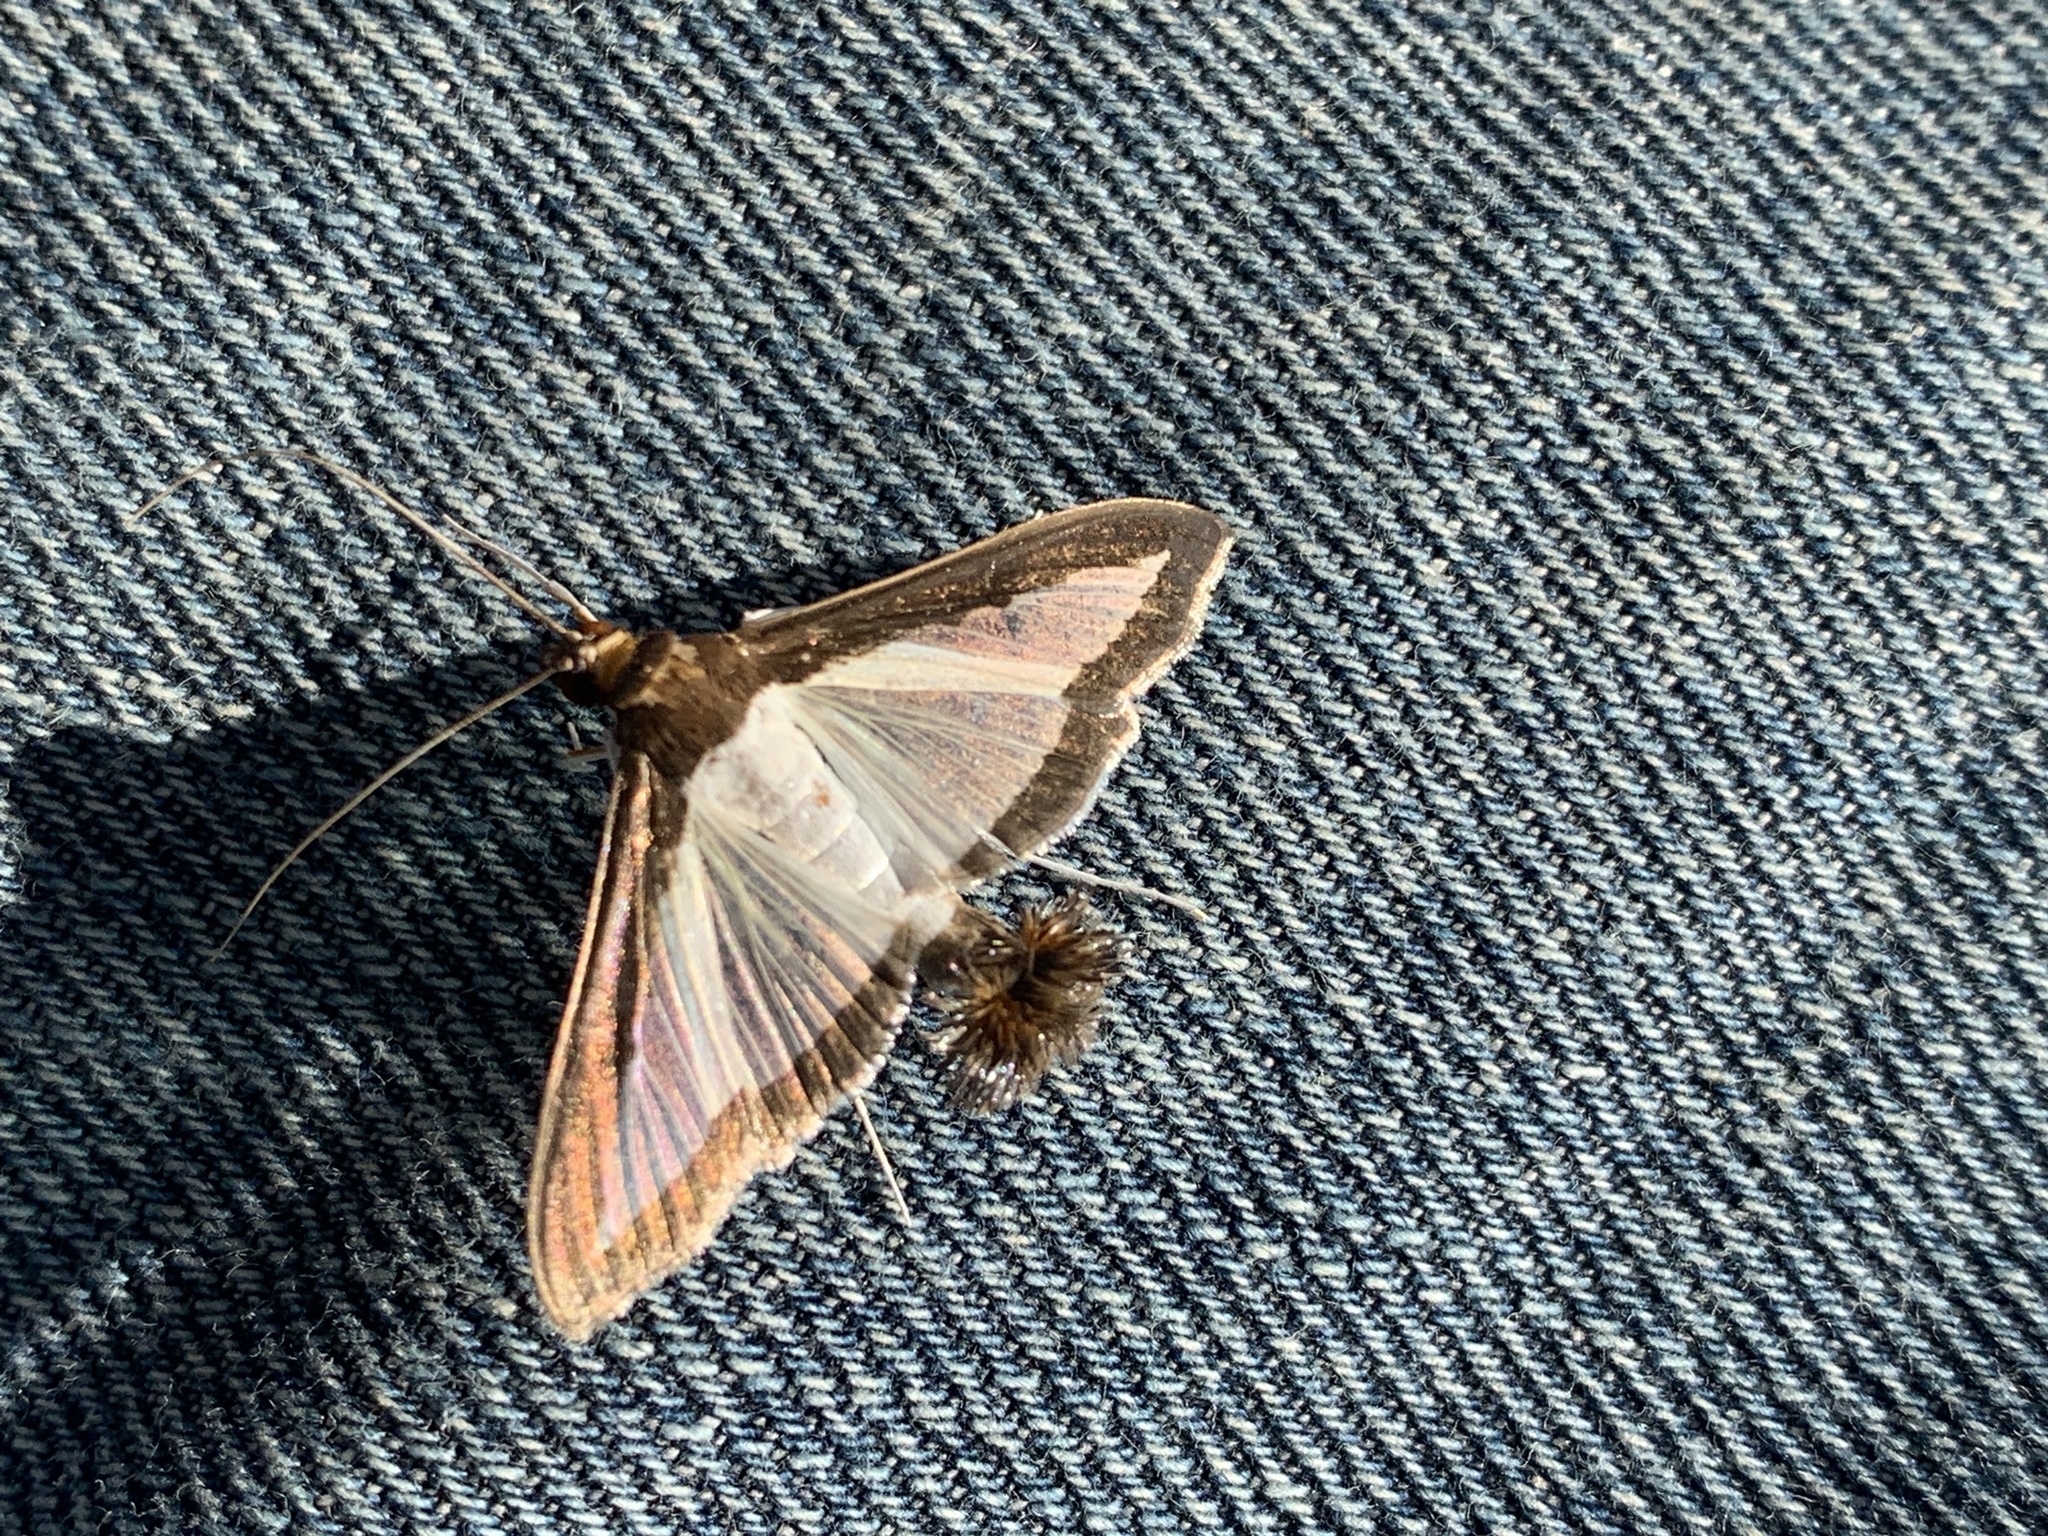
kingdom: Animalia
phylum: Arthropoda
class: Insecta
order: Lepidoptera
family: Crambidae
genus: Diaphania
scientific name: Diaphania hyalinata
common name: Melonworm
